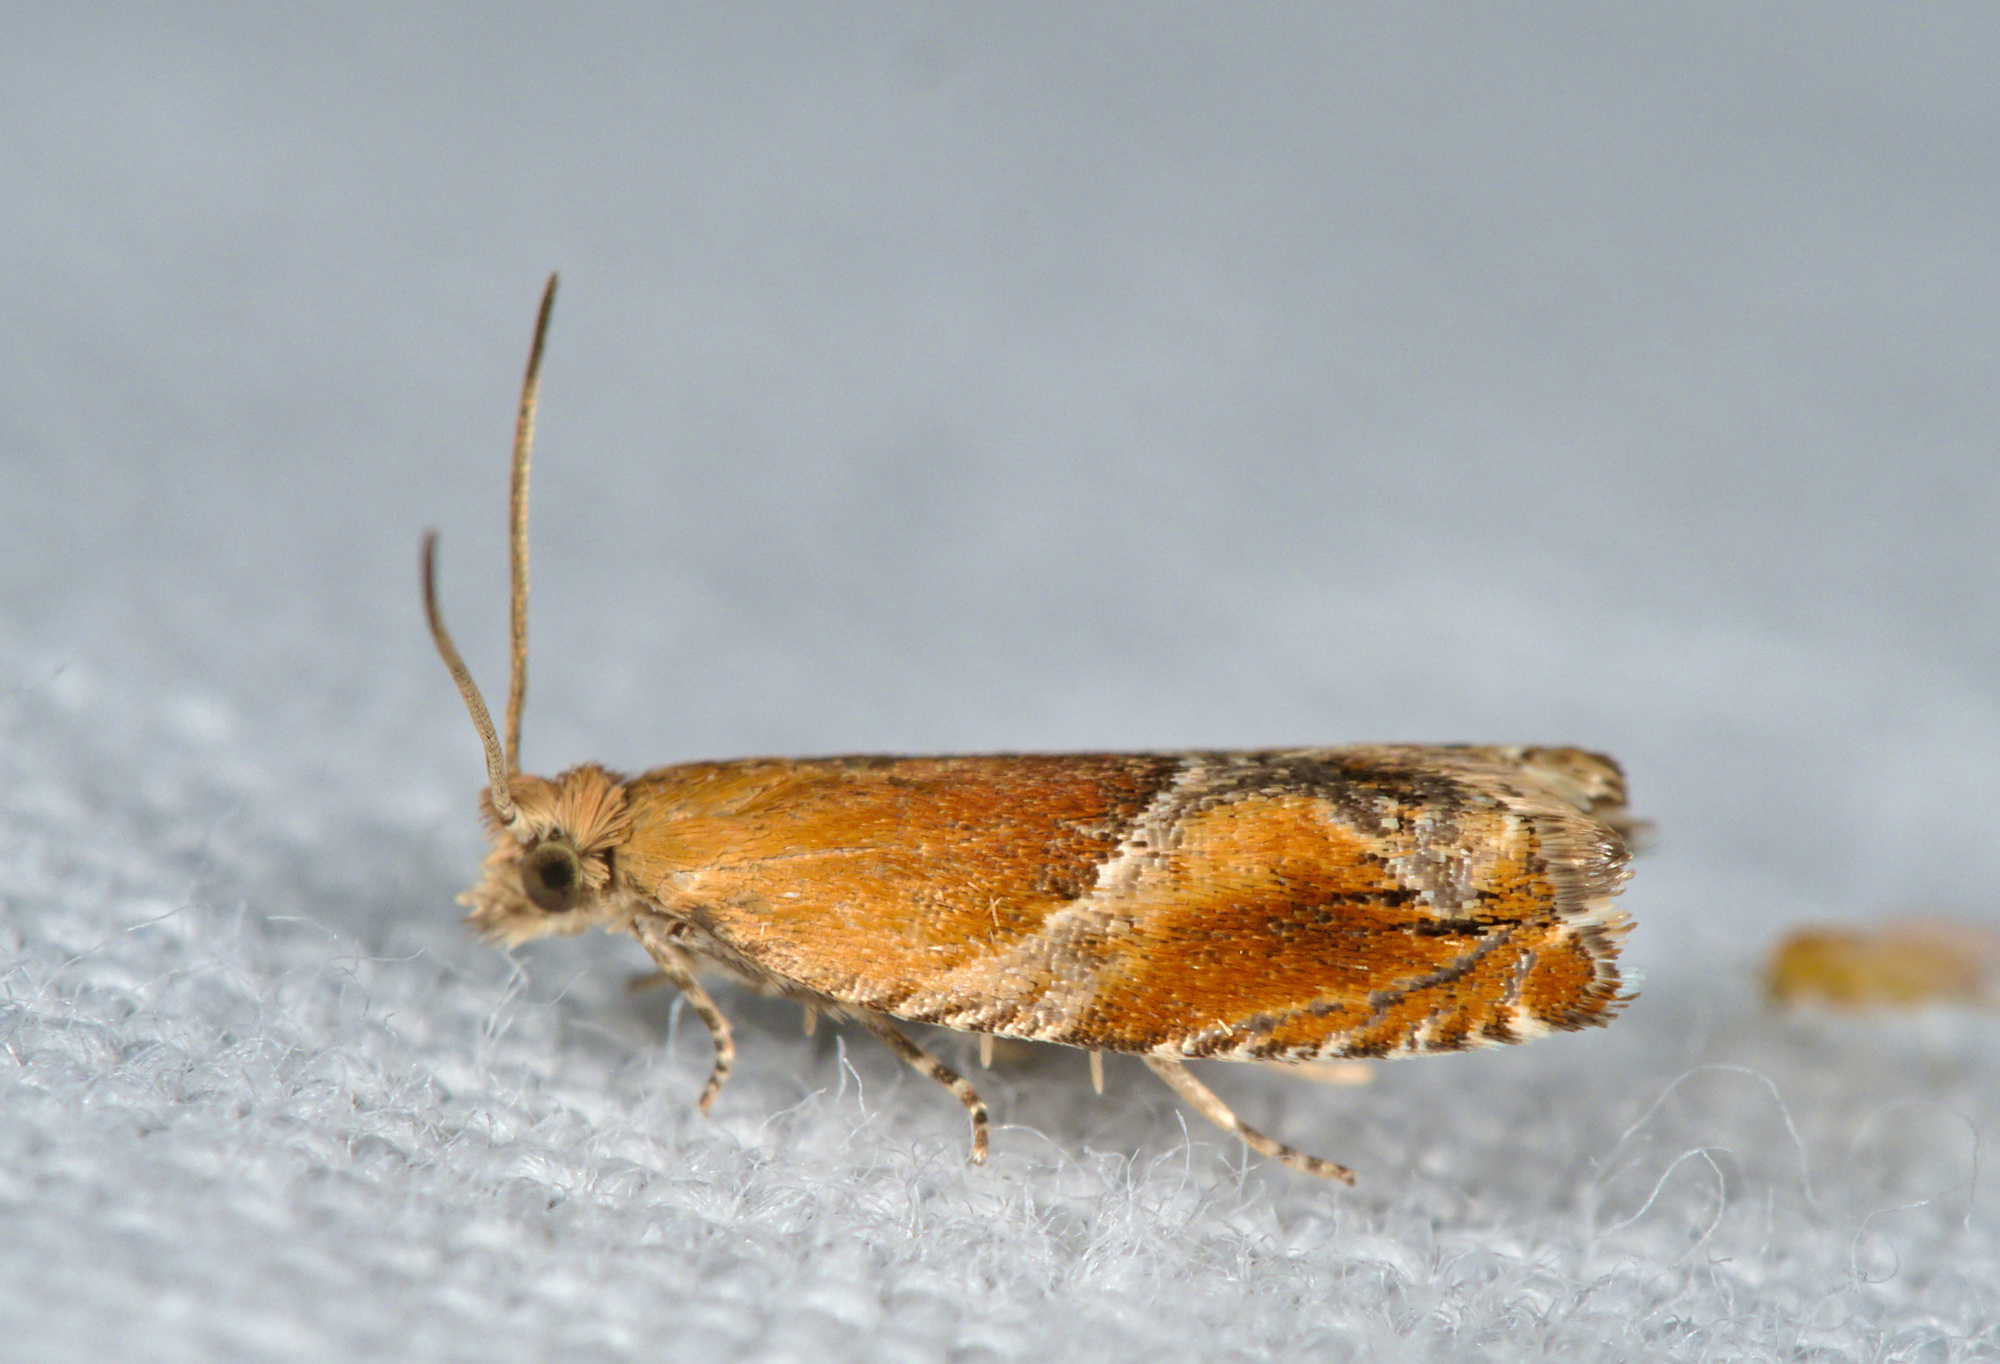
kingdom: Animalia
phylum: Arthropoda
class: Insecta
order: Lepidoptera
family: Tortricidae
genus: Ancylis
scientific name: Ancylis obtusana
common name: Small buckthorn roller
